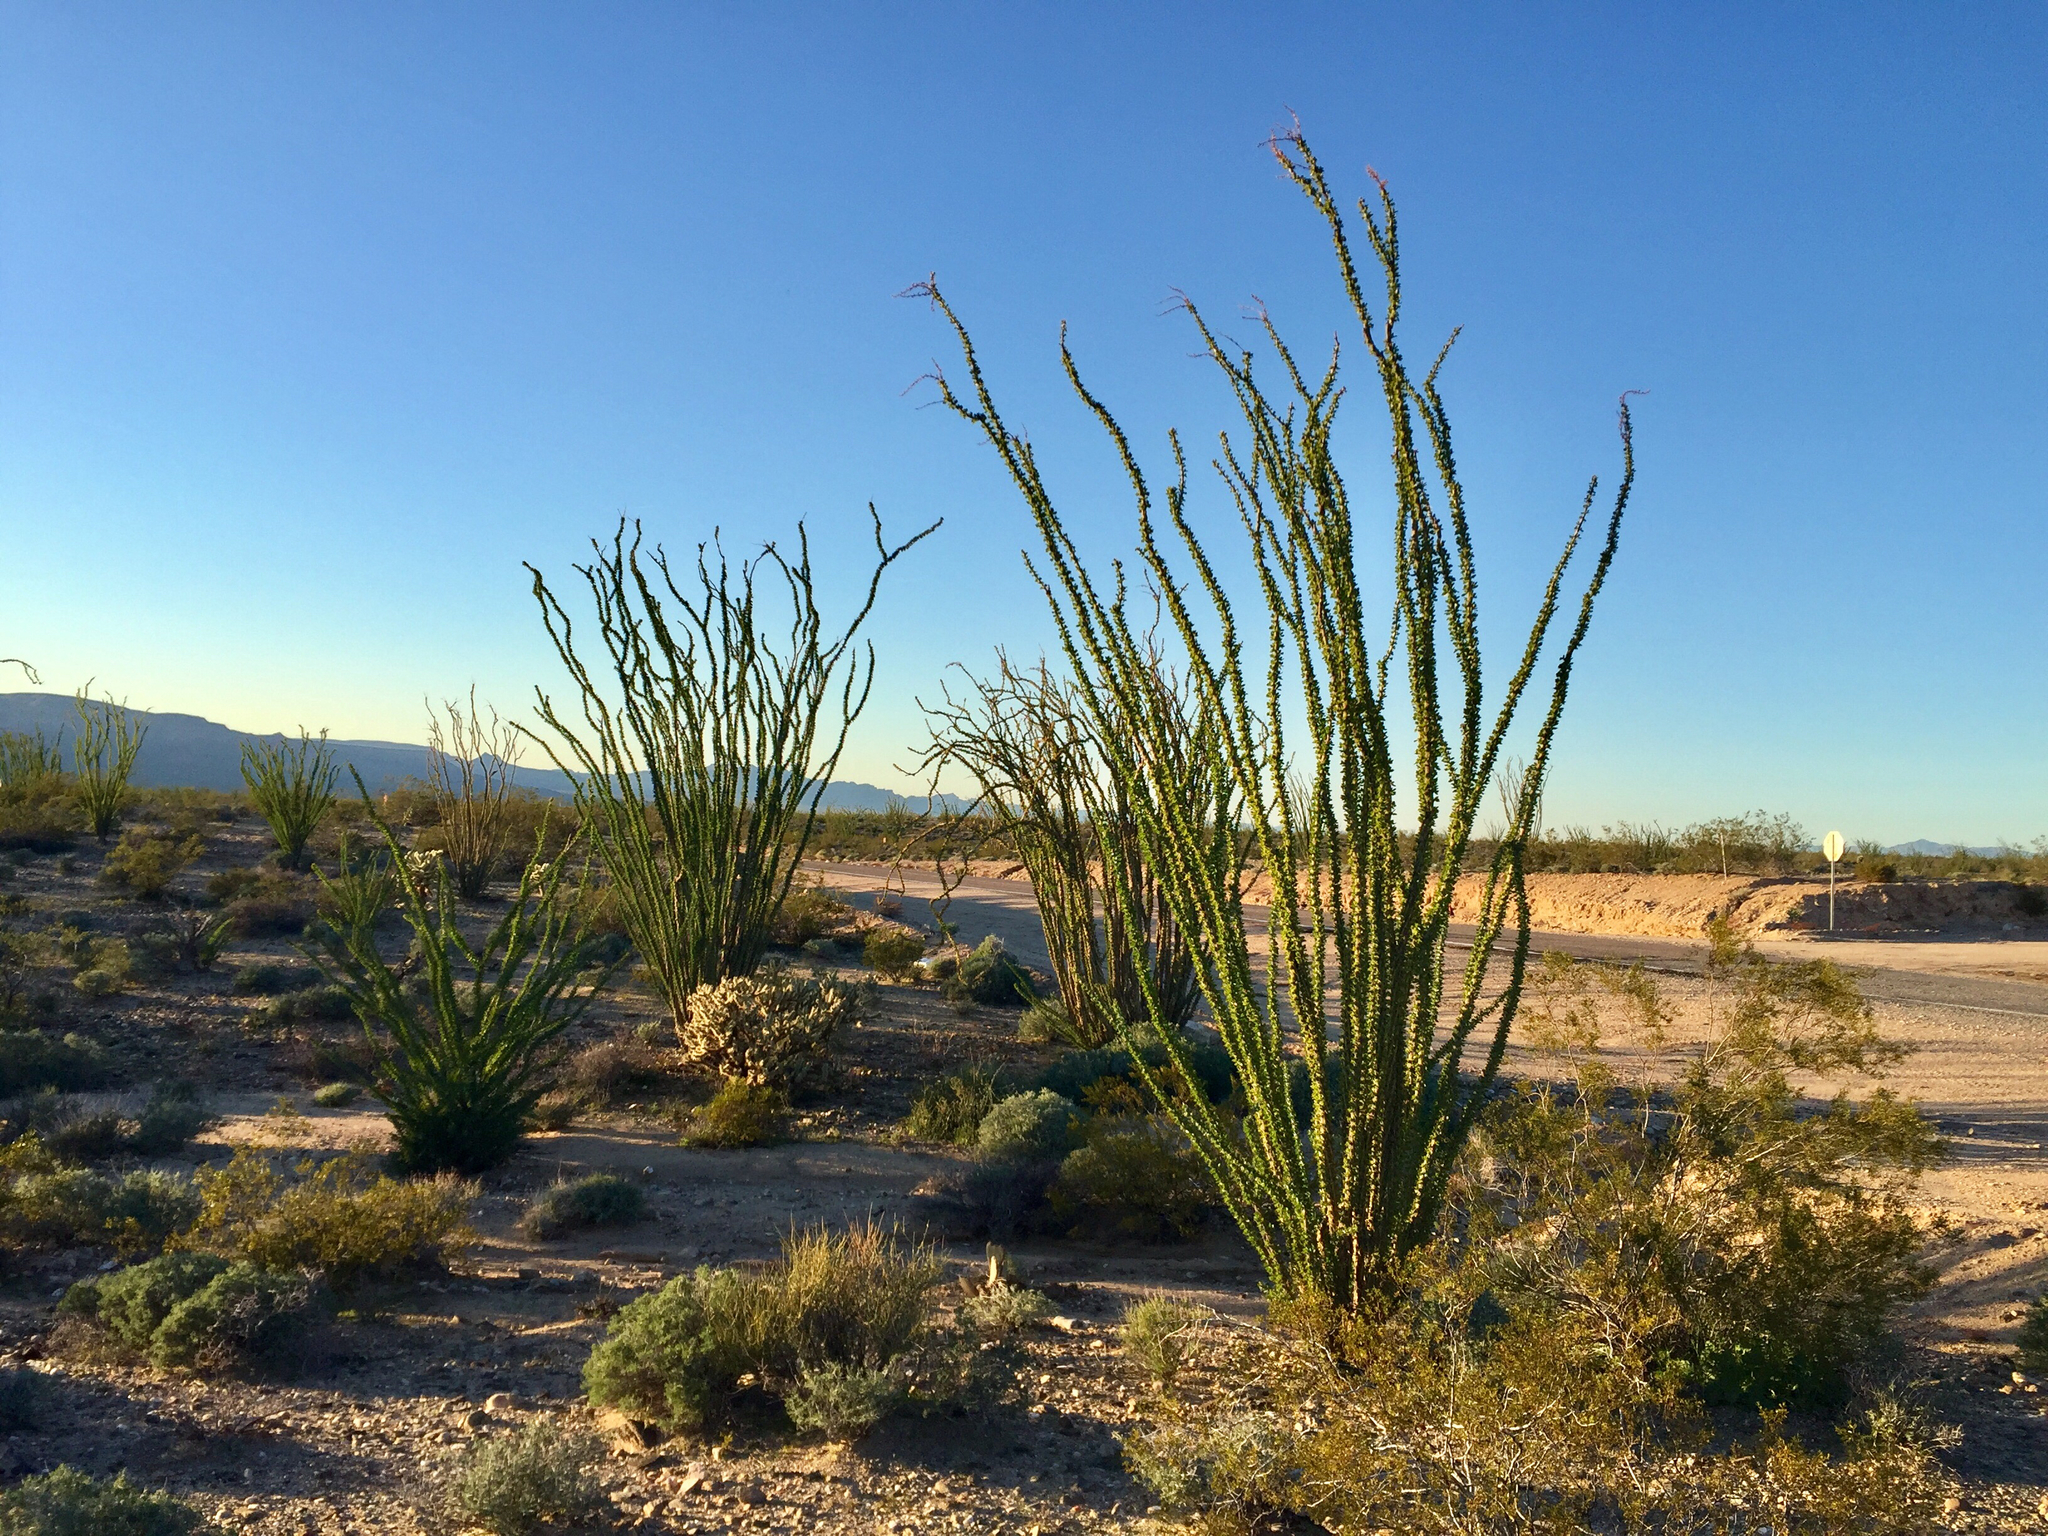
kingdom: Plantae
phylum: Tracheophyta
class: Magnoliopsida
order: Ericales
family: Fouquieriaceae
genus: Fouquieria
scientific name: Fouquieria splendens
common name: Vine-cactus
